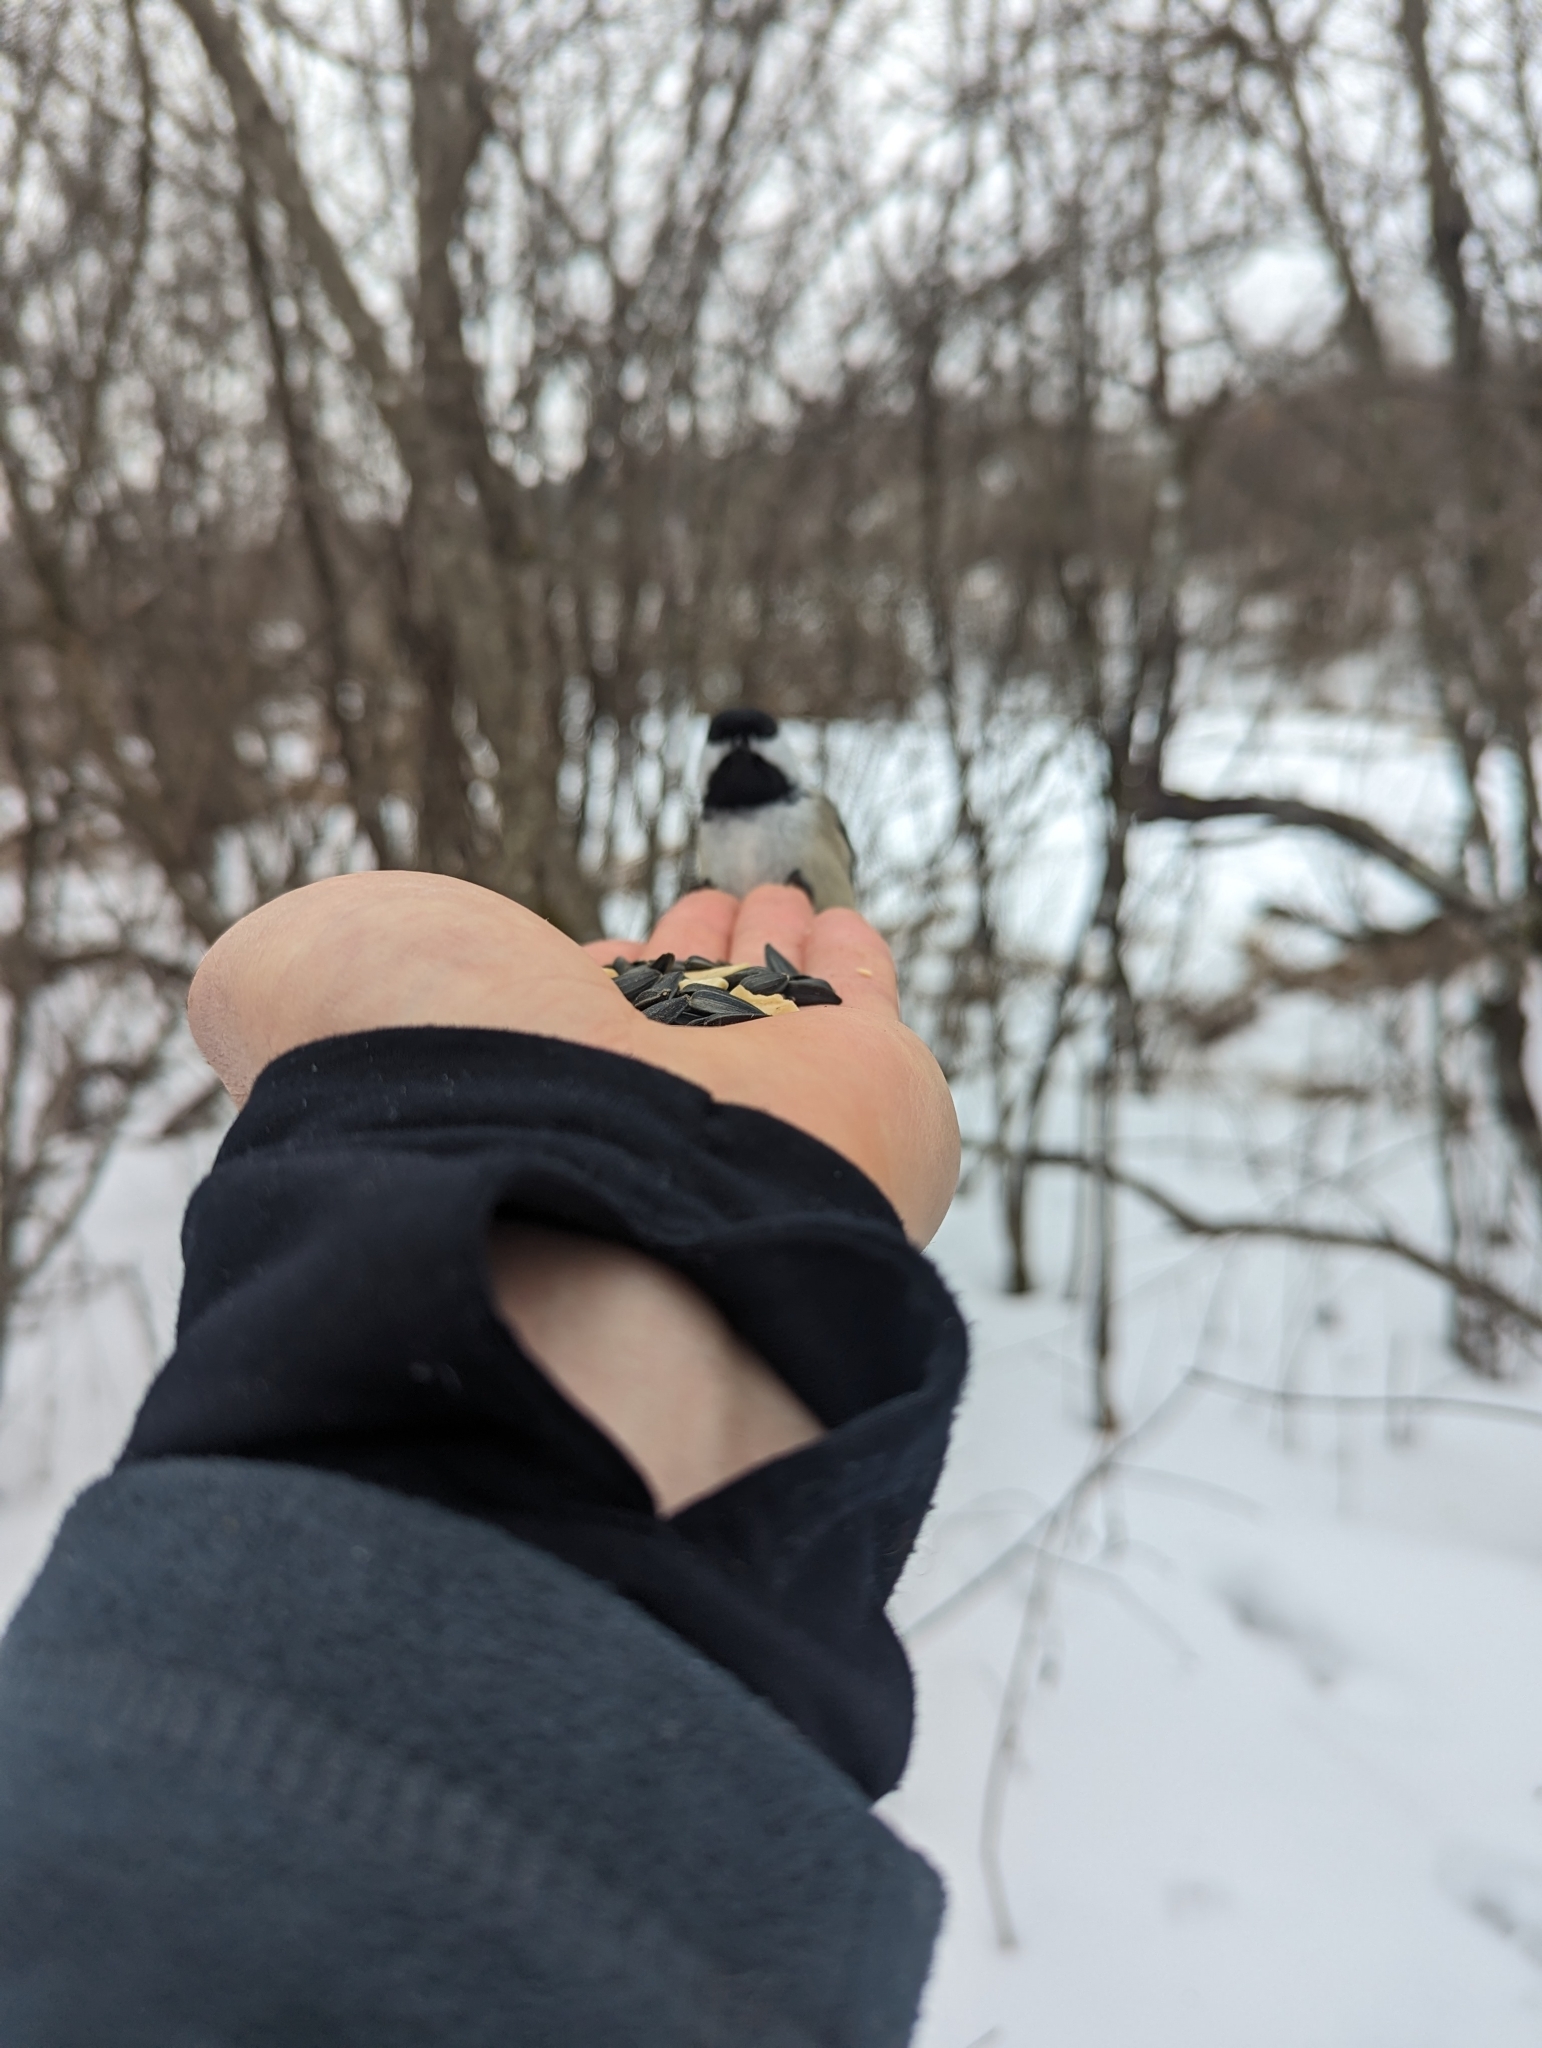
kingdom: Animalia
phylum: Chordata
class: Aves
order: Passeriformes
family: Paridae
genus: Poecile
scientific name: Poecile atricapillus
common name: Black-capped chickadee
